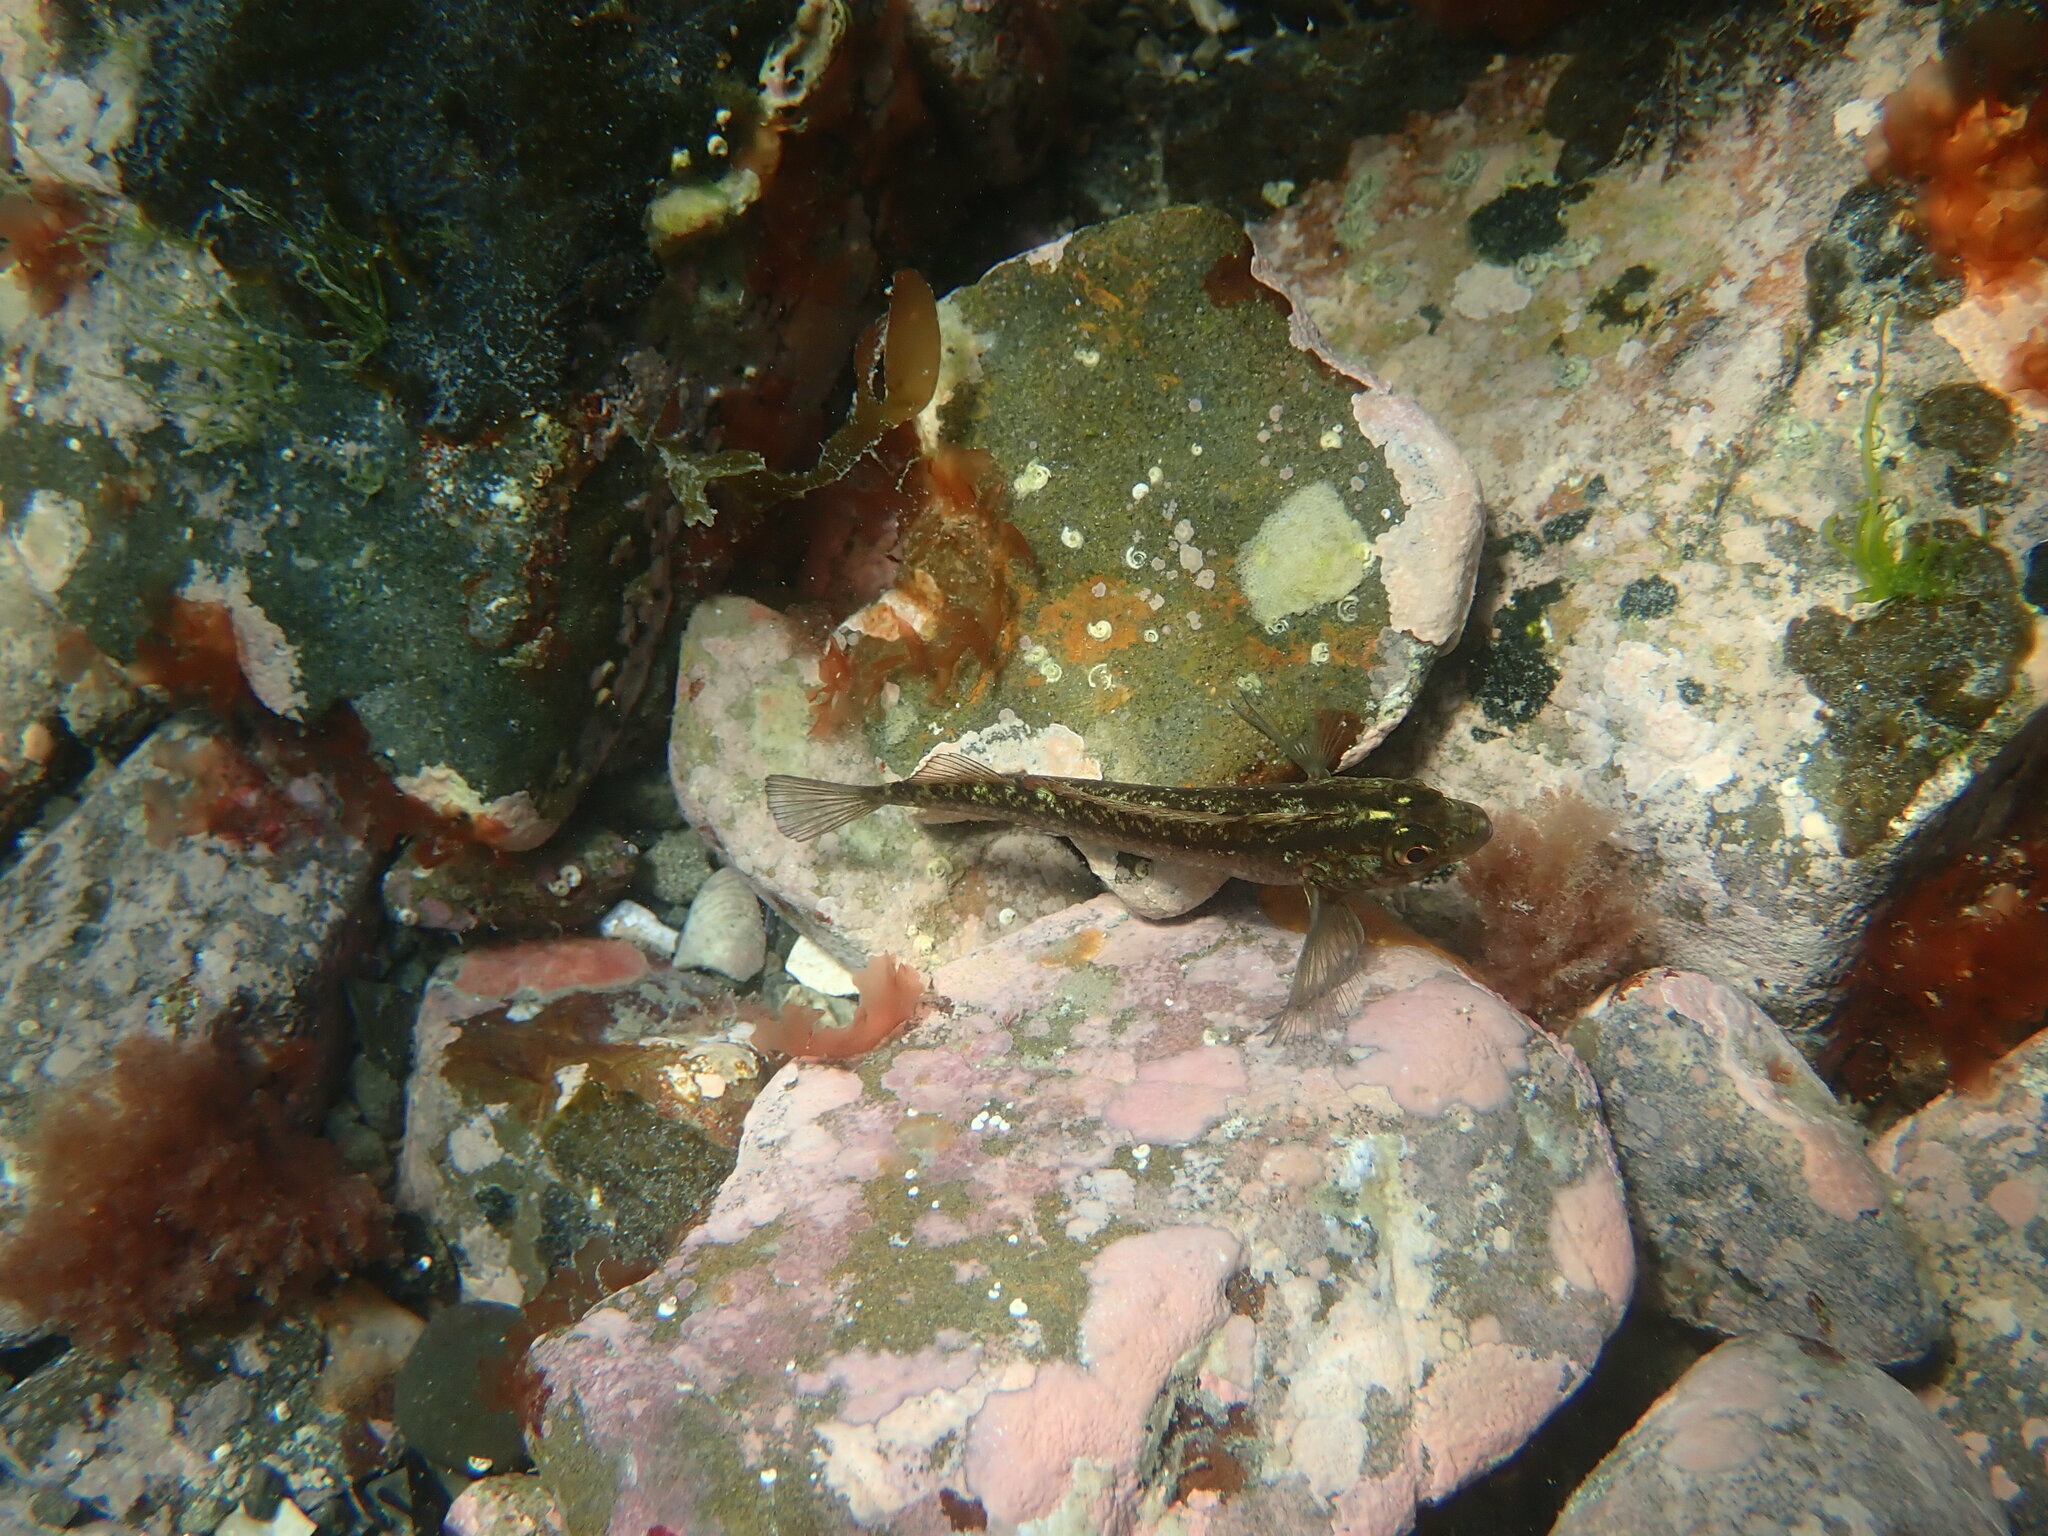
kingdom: Animalia
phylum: Chordata
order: Perciformes
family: Tripterygiidae
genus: Forsterygion
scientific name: Forsterygion lapillum
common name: Common triplefin
